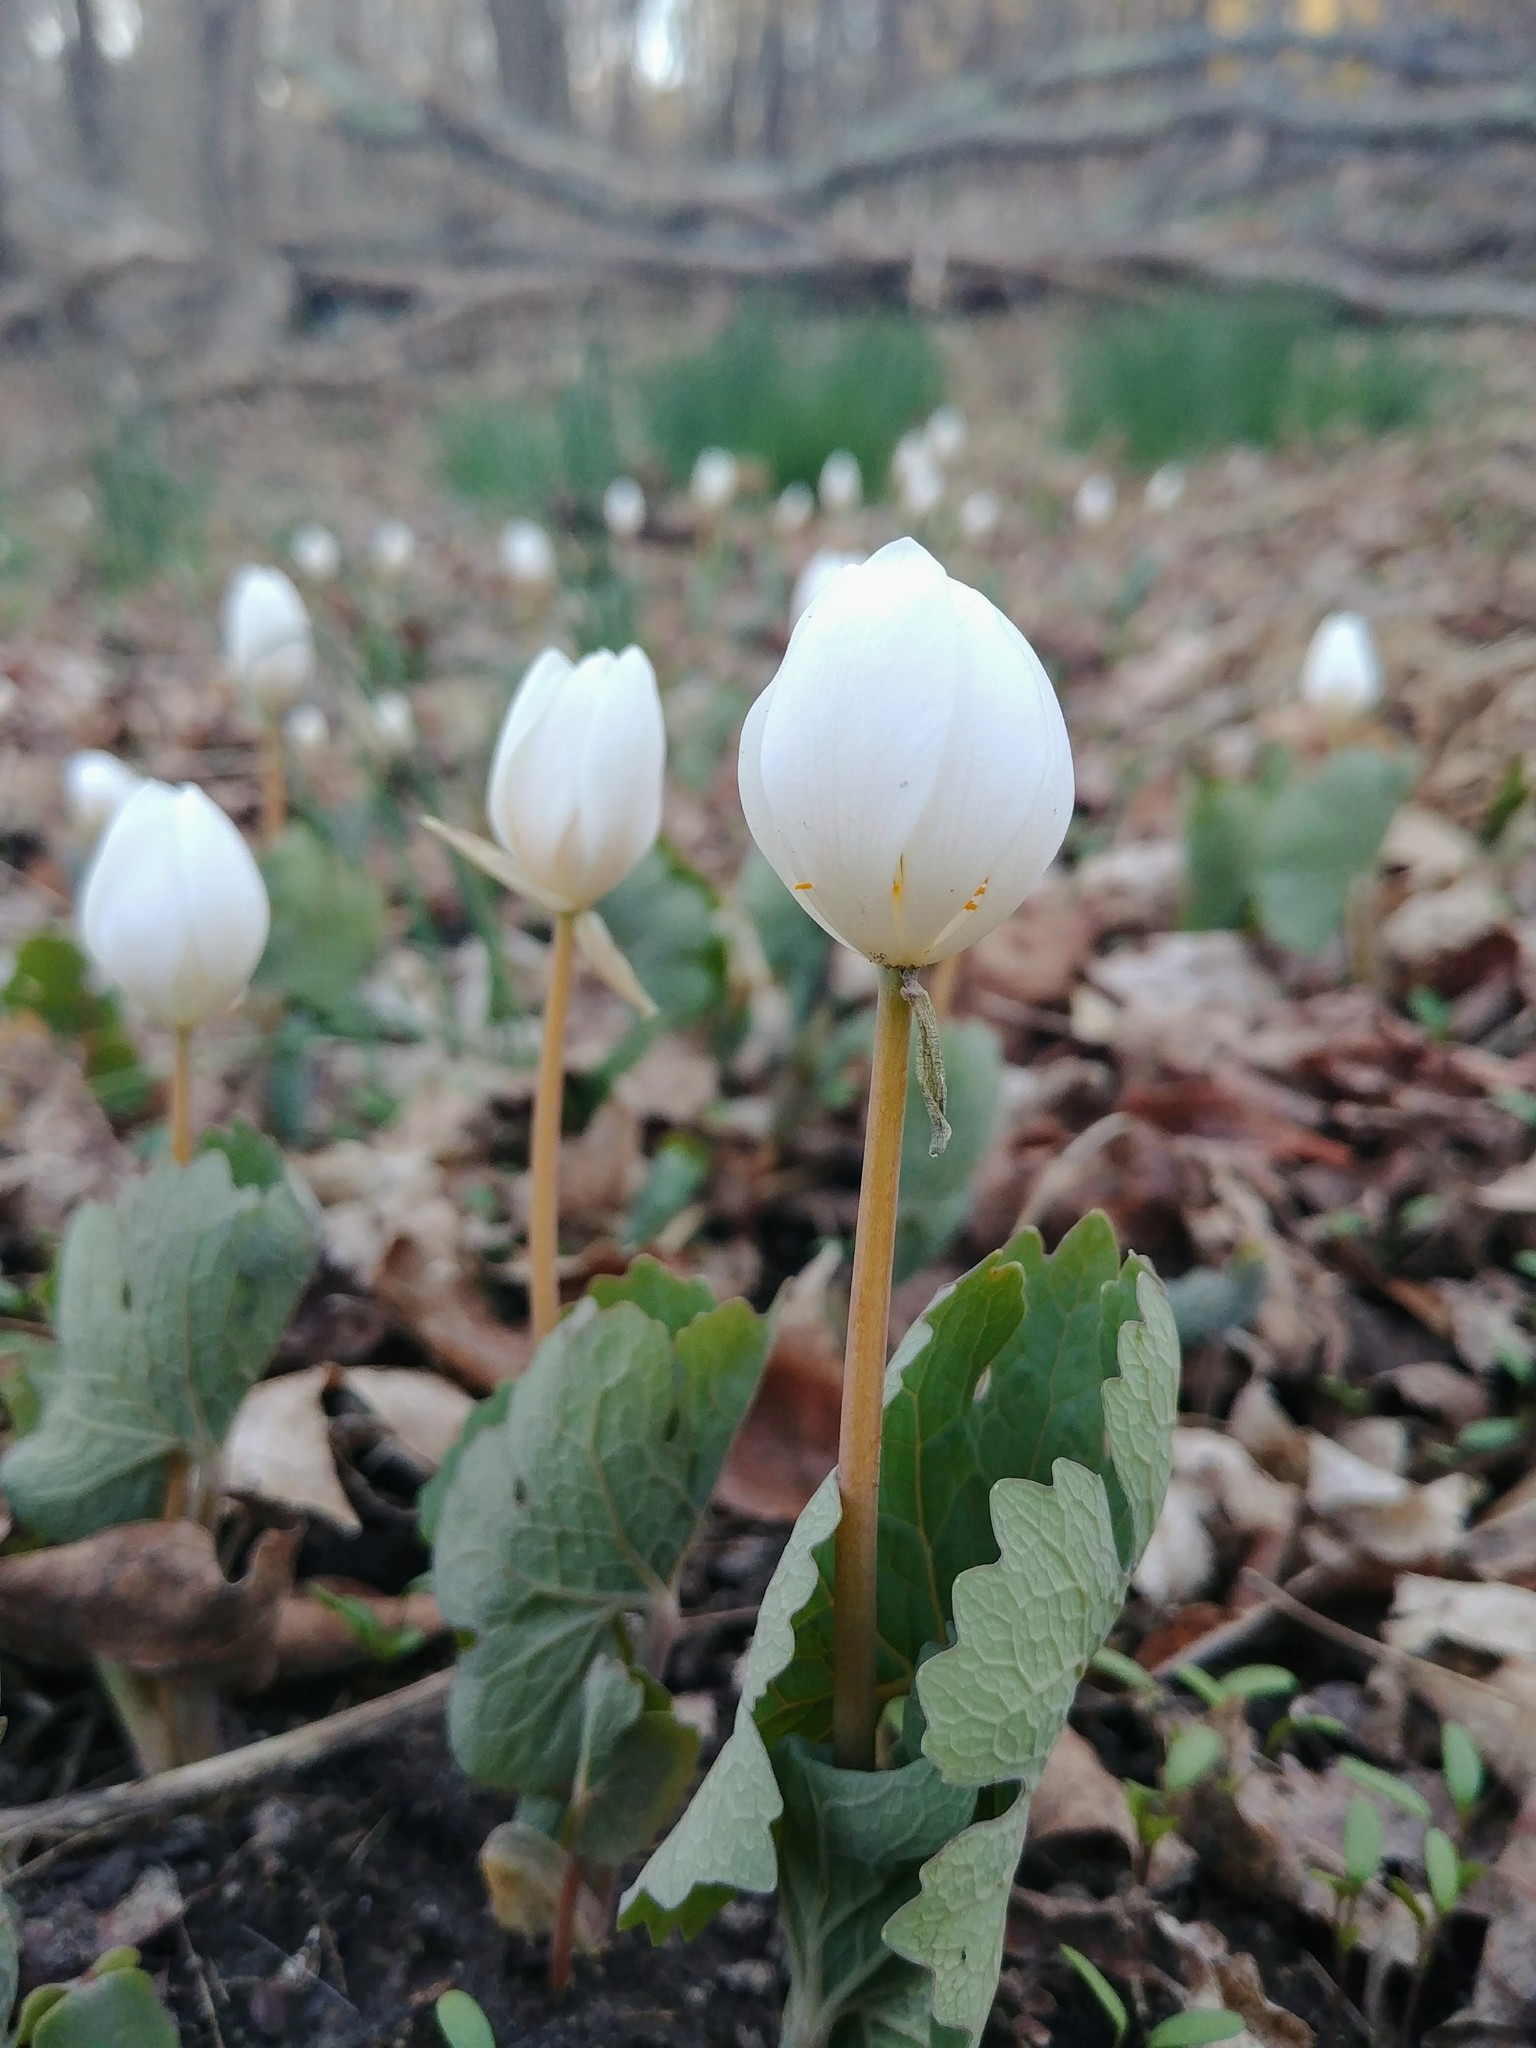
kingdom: Plantae
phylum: Tracheophyta
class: Magnoliopsida
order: Ranunculales
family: Papaveraceae
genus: Sanguinaria
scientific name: Sanguinaria canadensis
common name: Bloodroot
